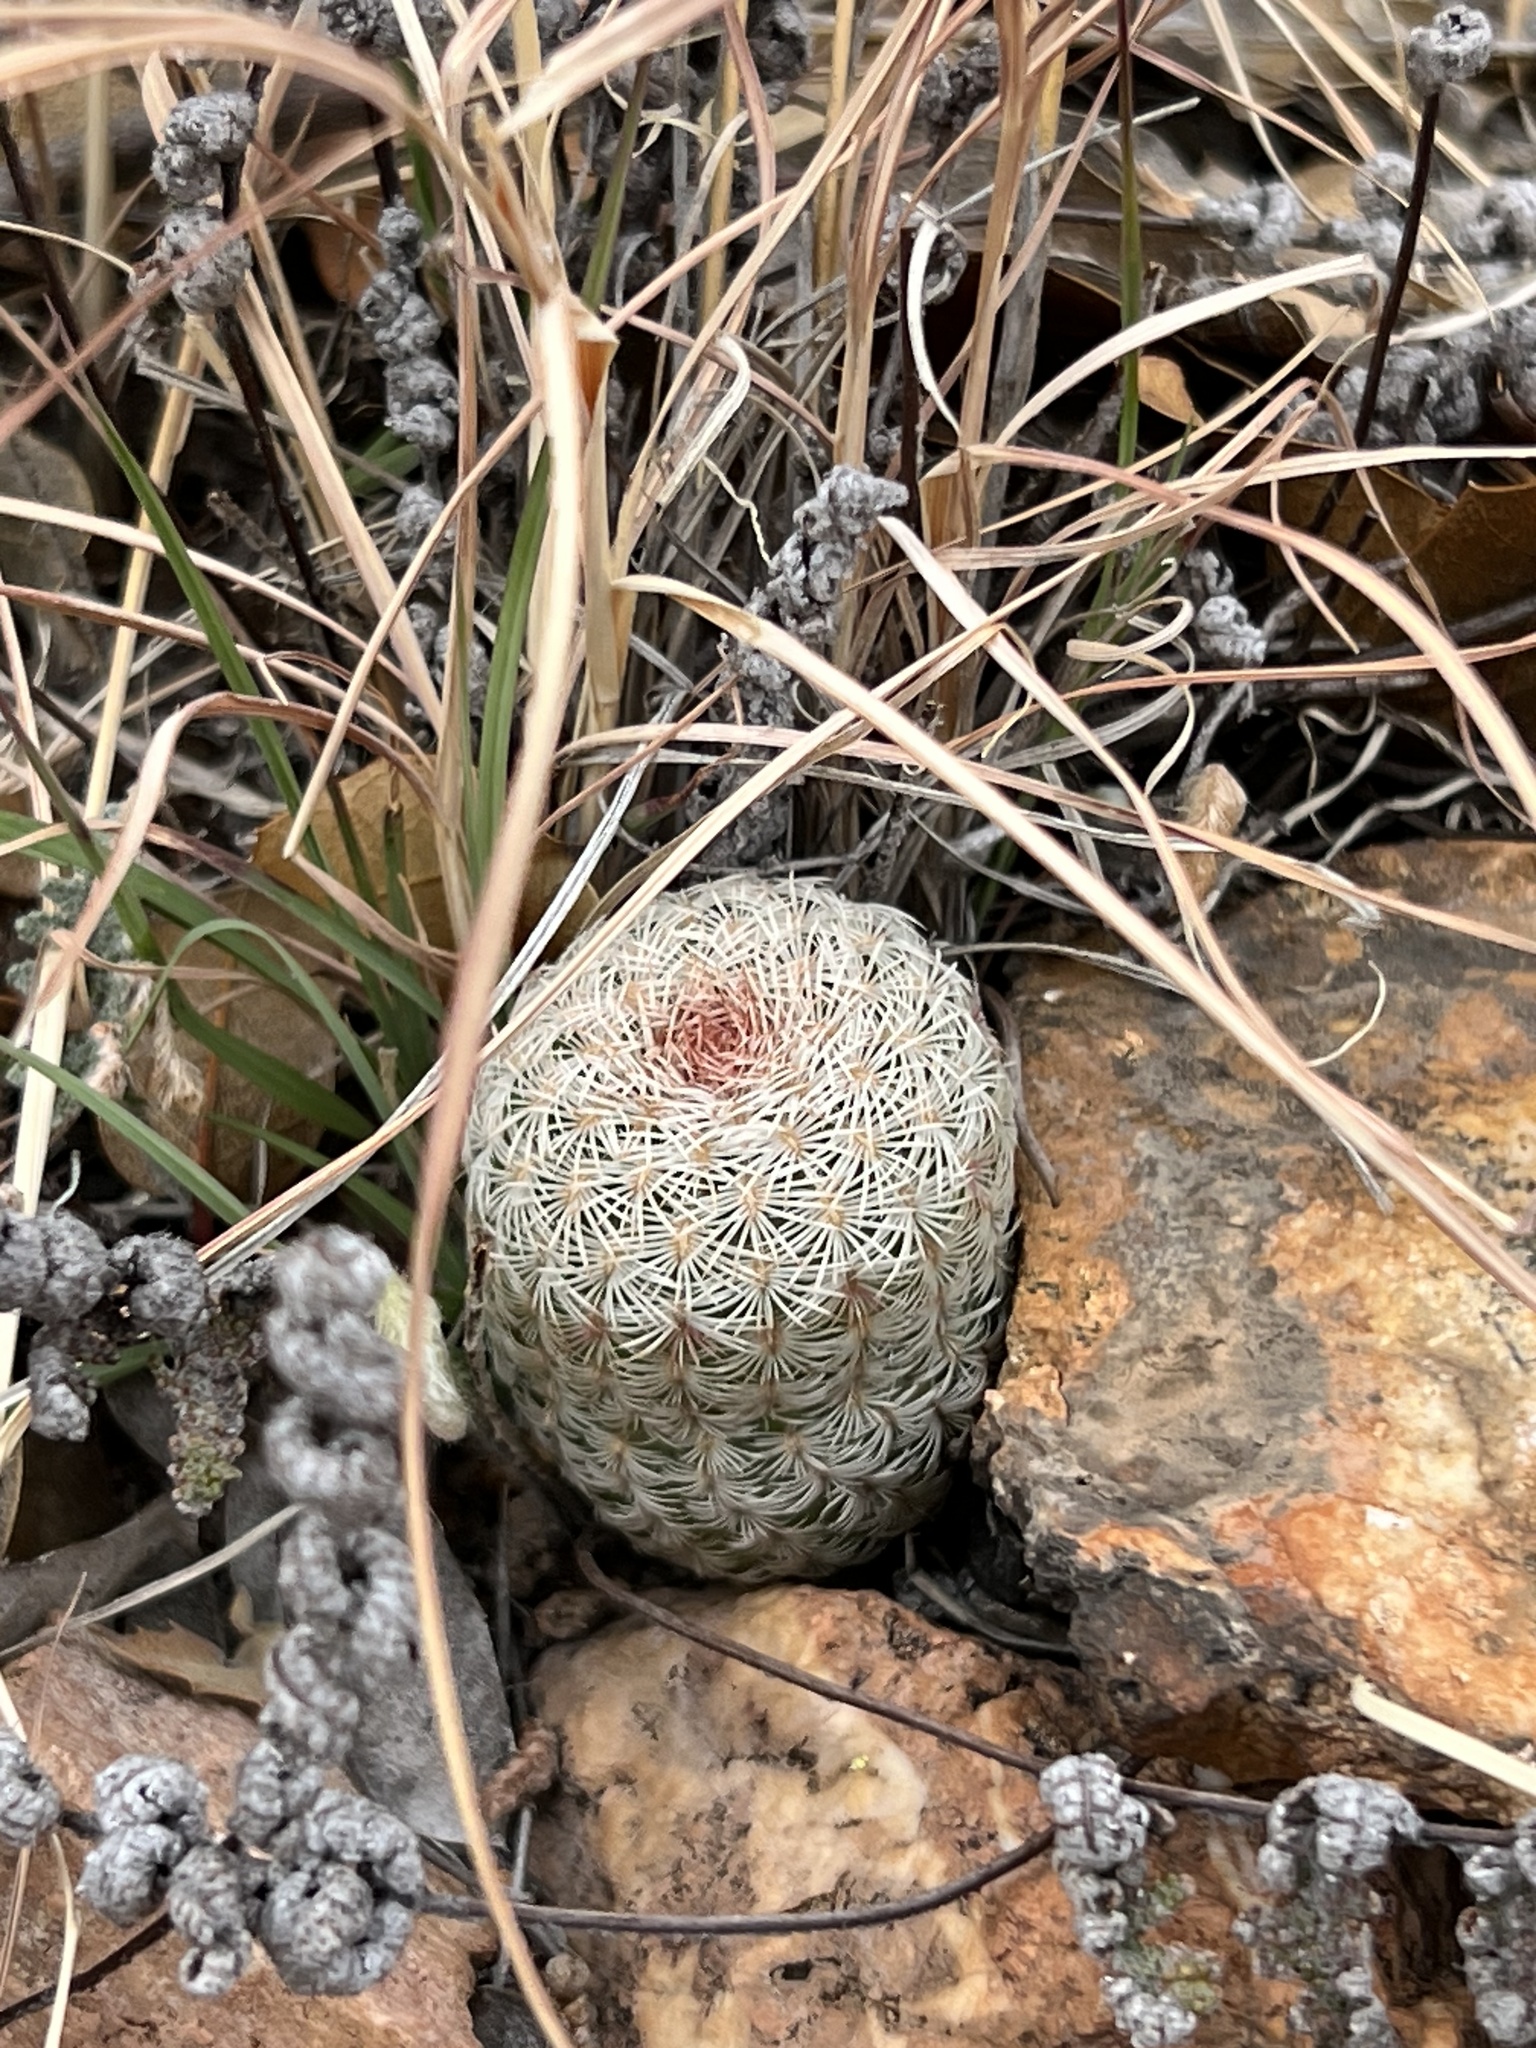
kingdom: Plantae
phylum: Tracheophyta
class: Magnoliopsida
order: Caryophyllales
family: Cactaceae
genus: Echinocereus
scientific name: Echinocereus rigidissimus
